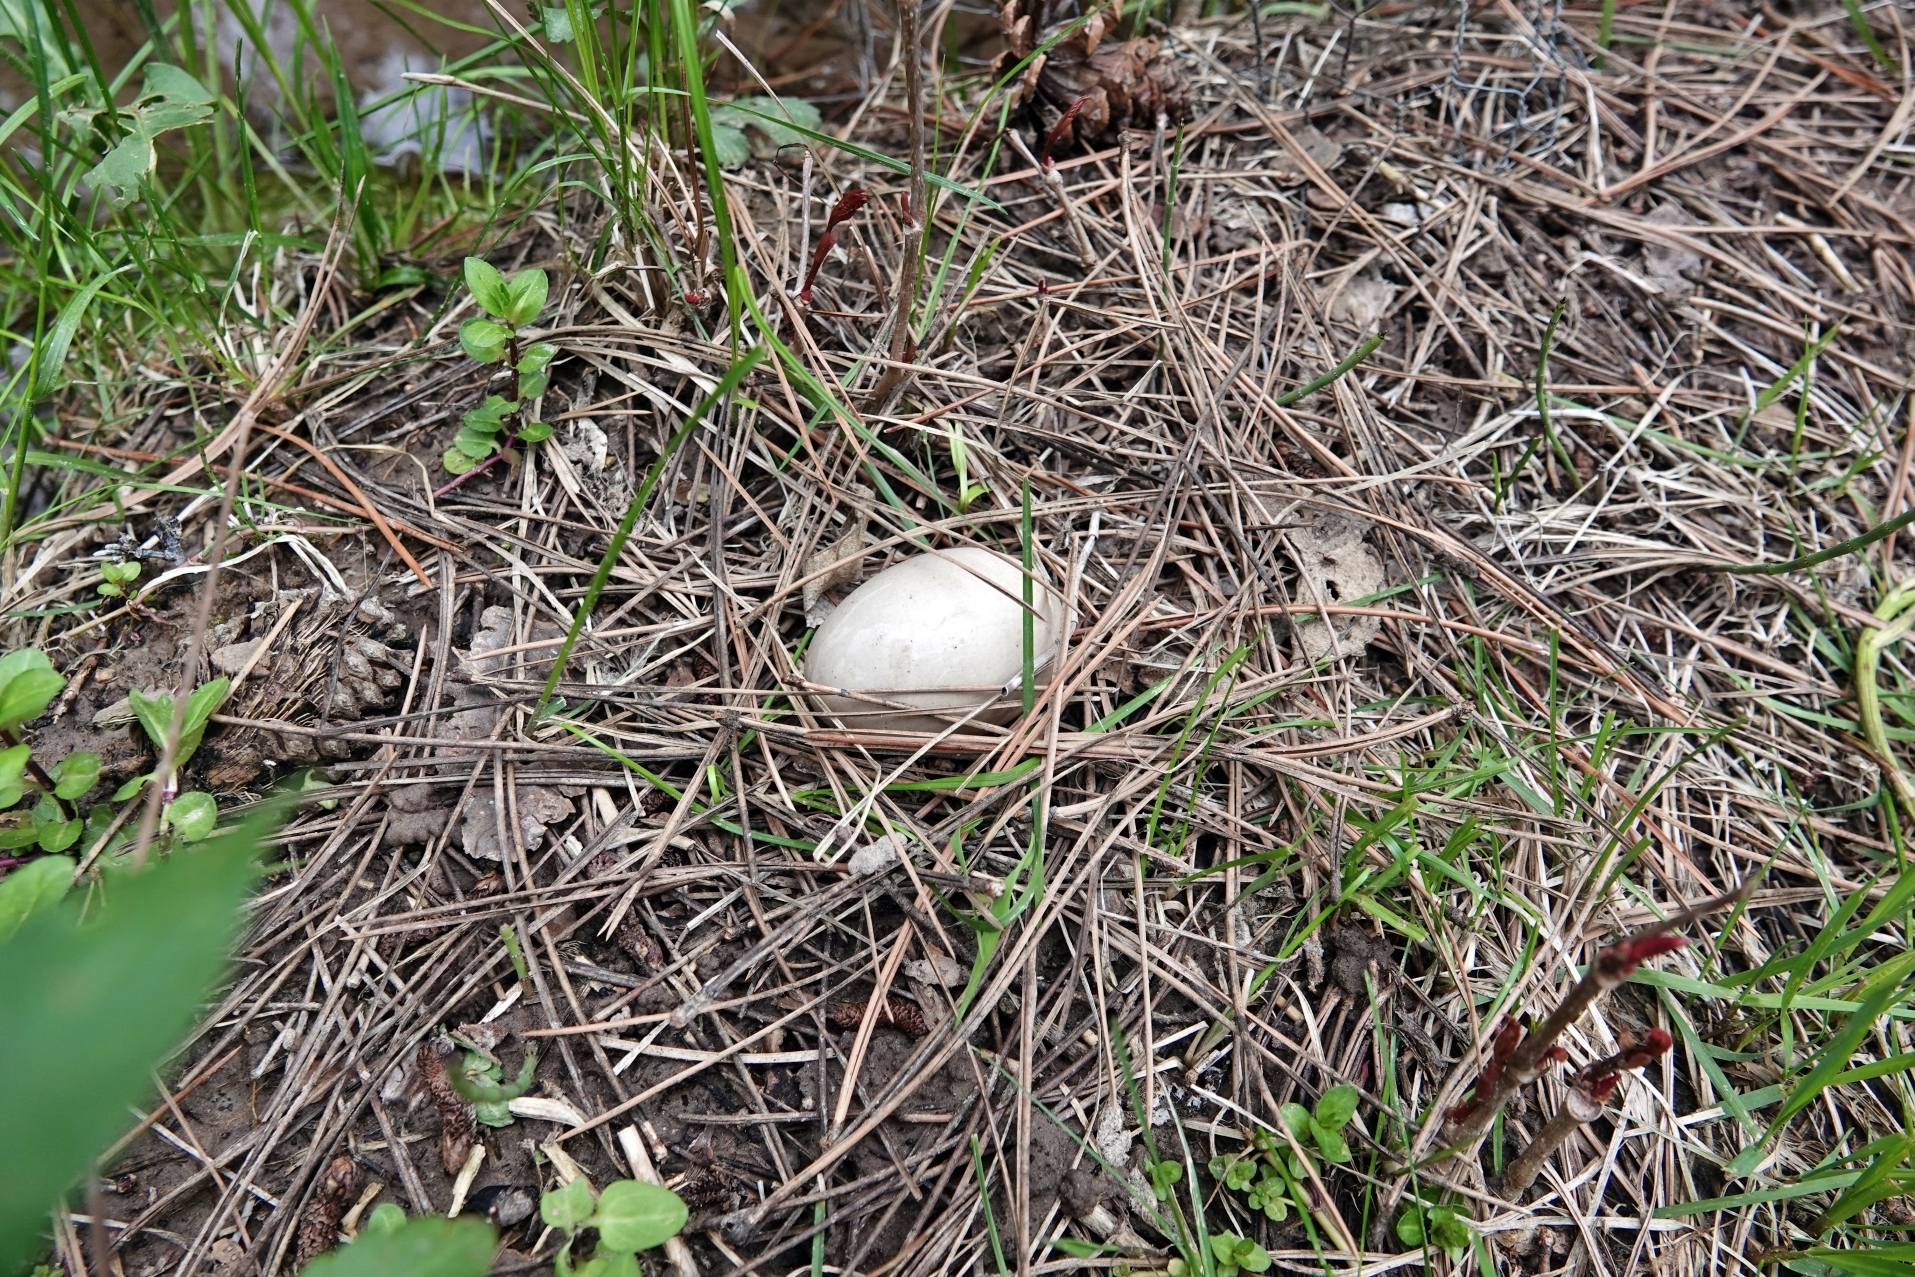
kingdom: Animalia
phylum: Chordata
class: Aves
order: Anseriformes
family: Anatidae
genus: Anas
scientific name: Anas platyrhynchos
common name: Mallard
